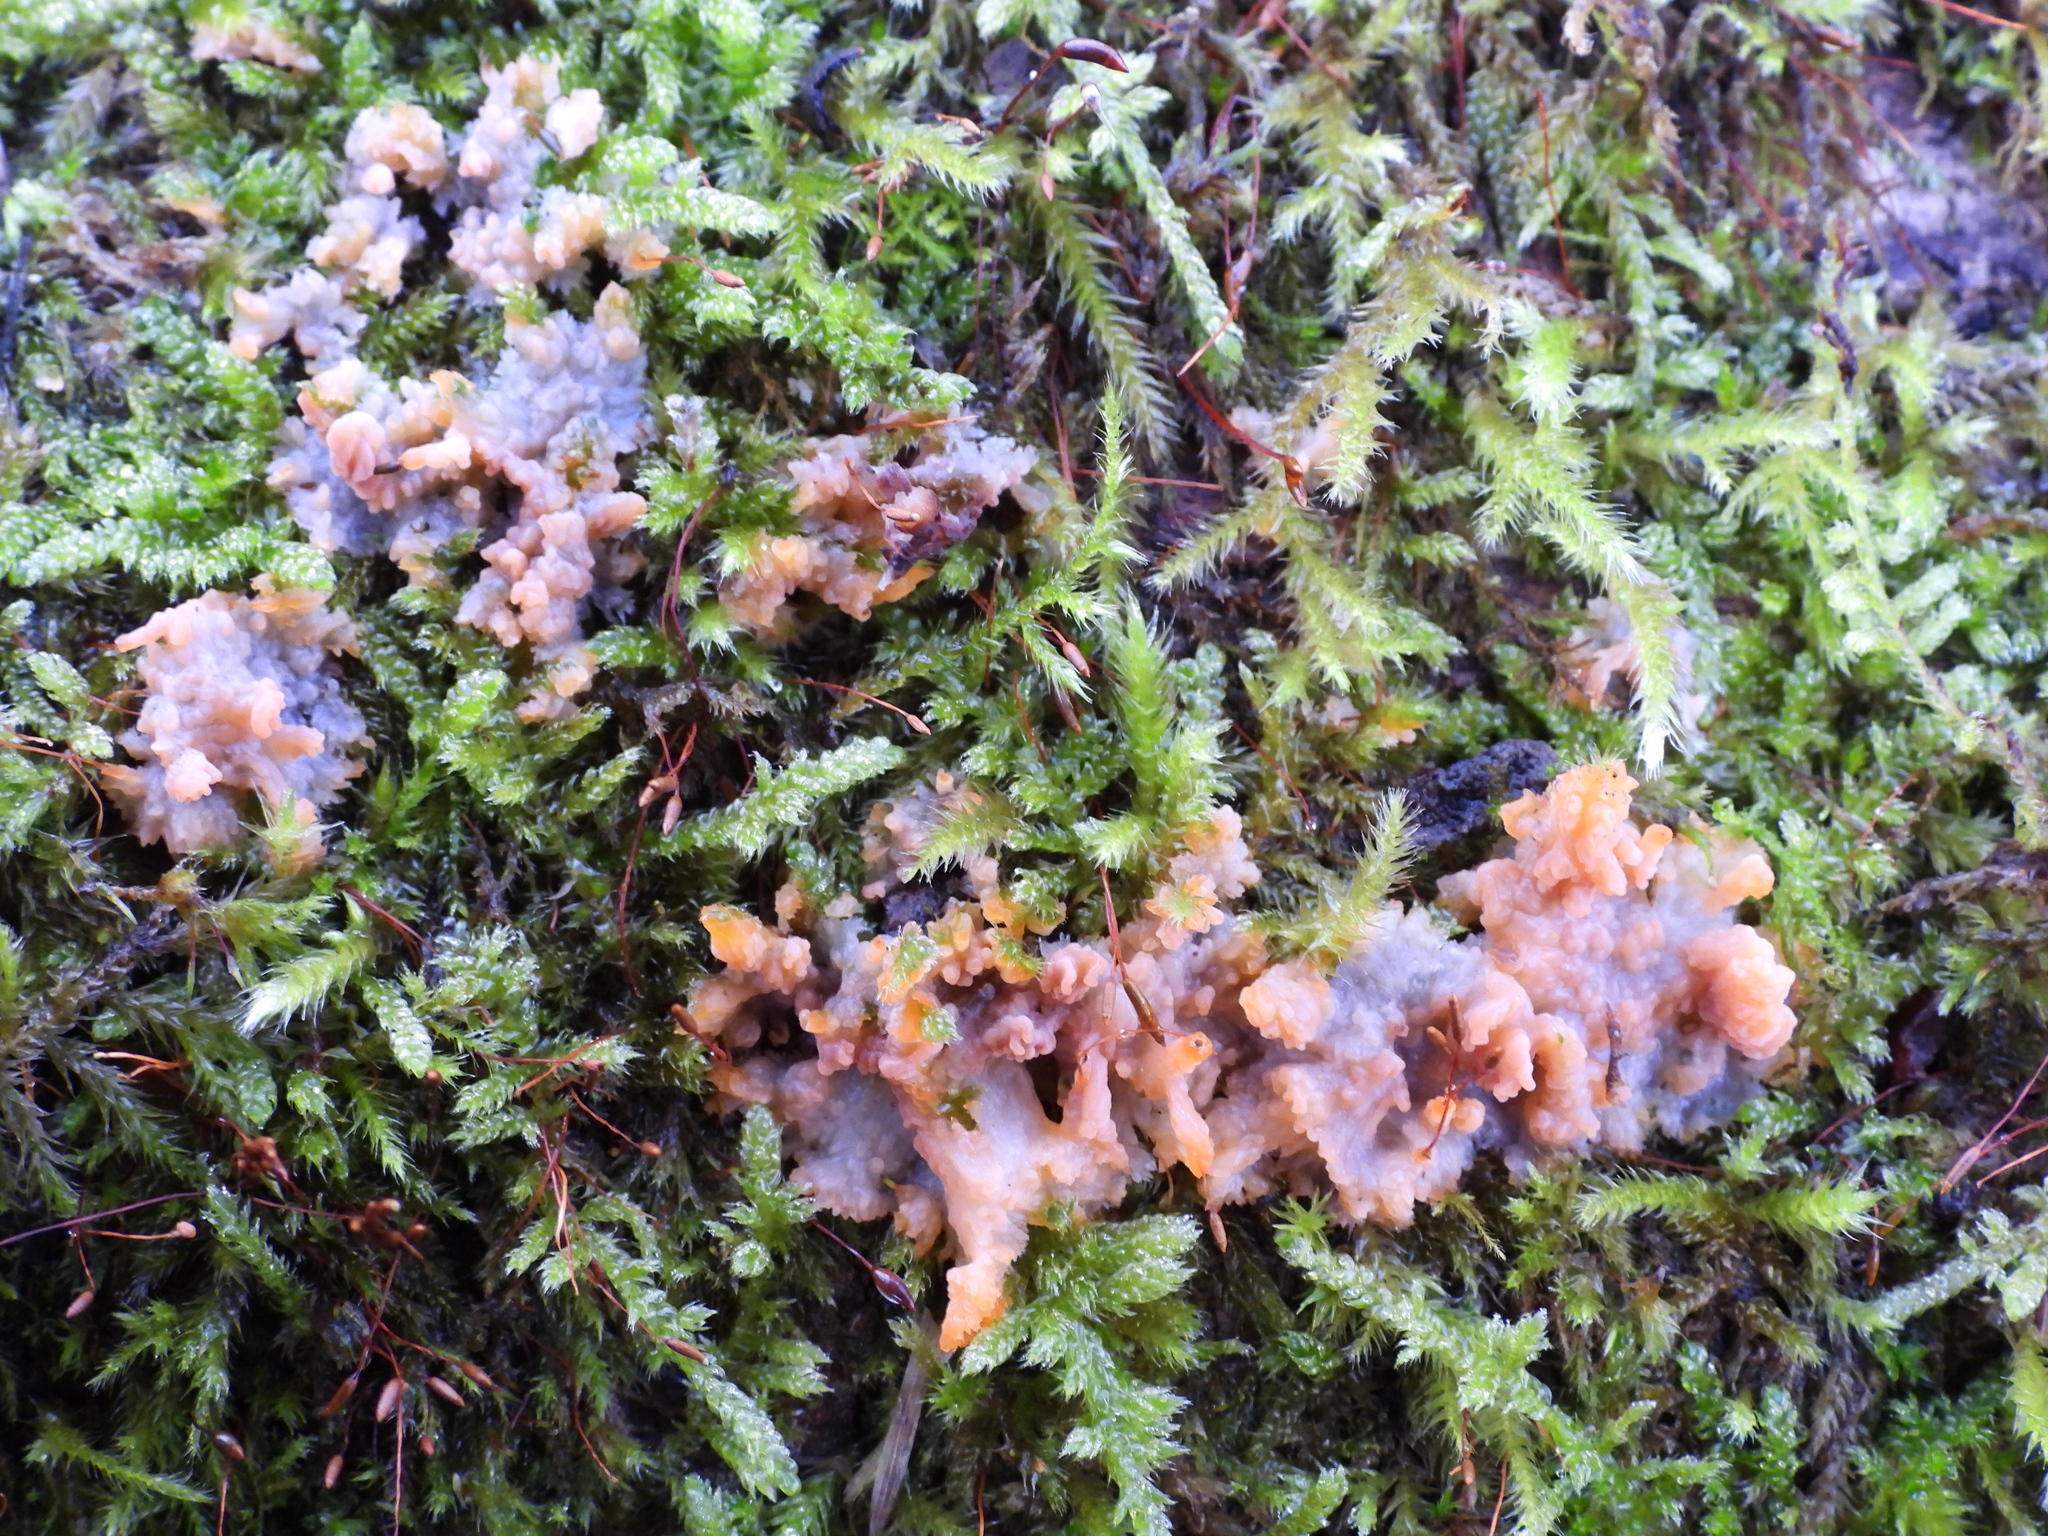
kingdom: Fungi
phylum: Basidiomycota
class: Agaricomycetes
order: Polyporales
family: Meruliaceae
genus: Phlebia
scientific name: Phlebia radiata
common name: Wrinkled crust
